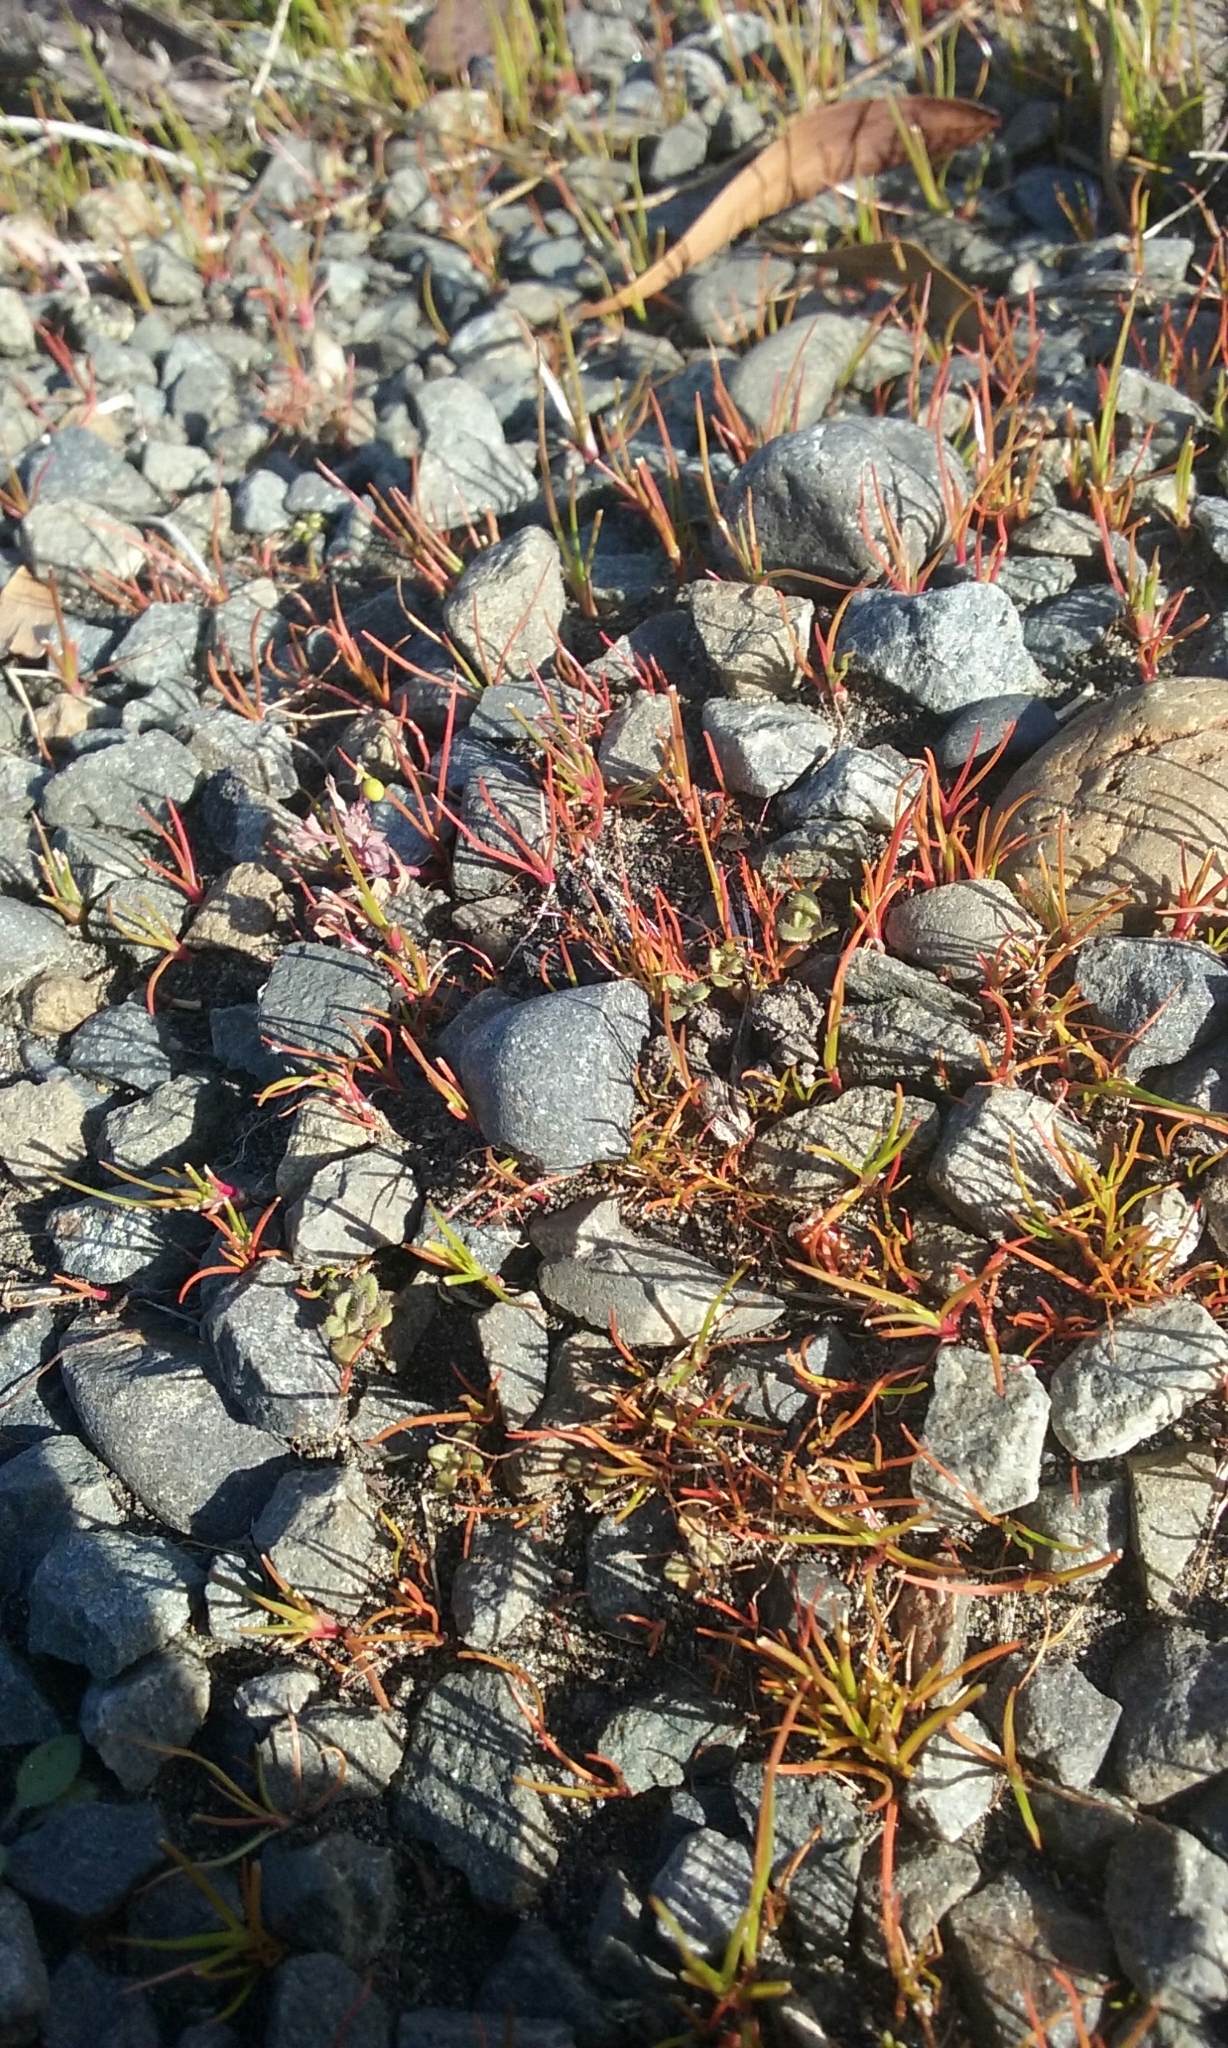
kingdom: Plantae
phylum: Tracheophyta
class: Liliopsida
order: Poales
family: Juncaceae
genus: Juncus
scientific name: Juncus bufonius
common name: Toad rush
